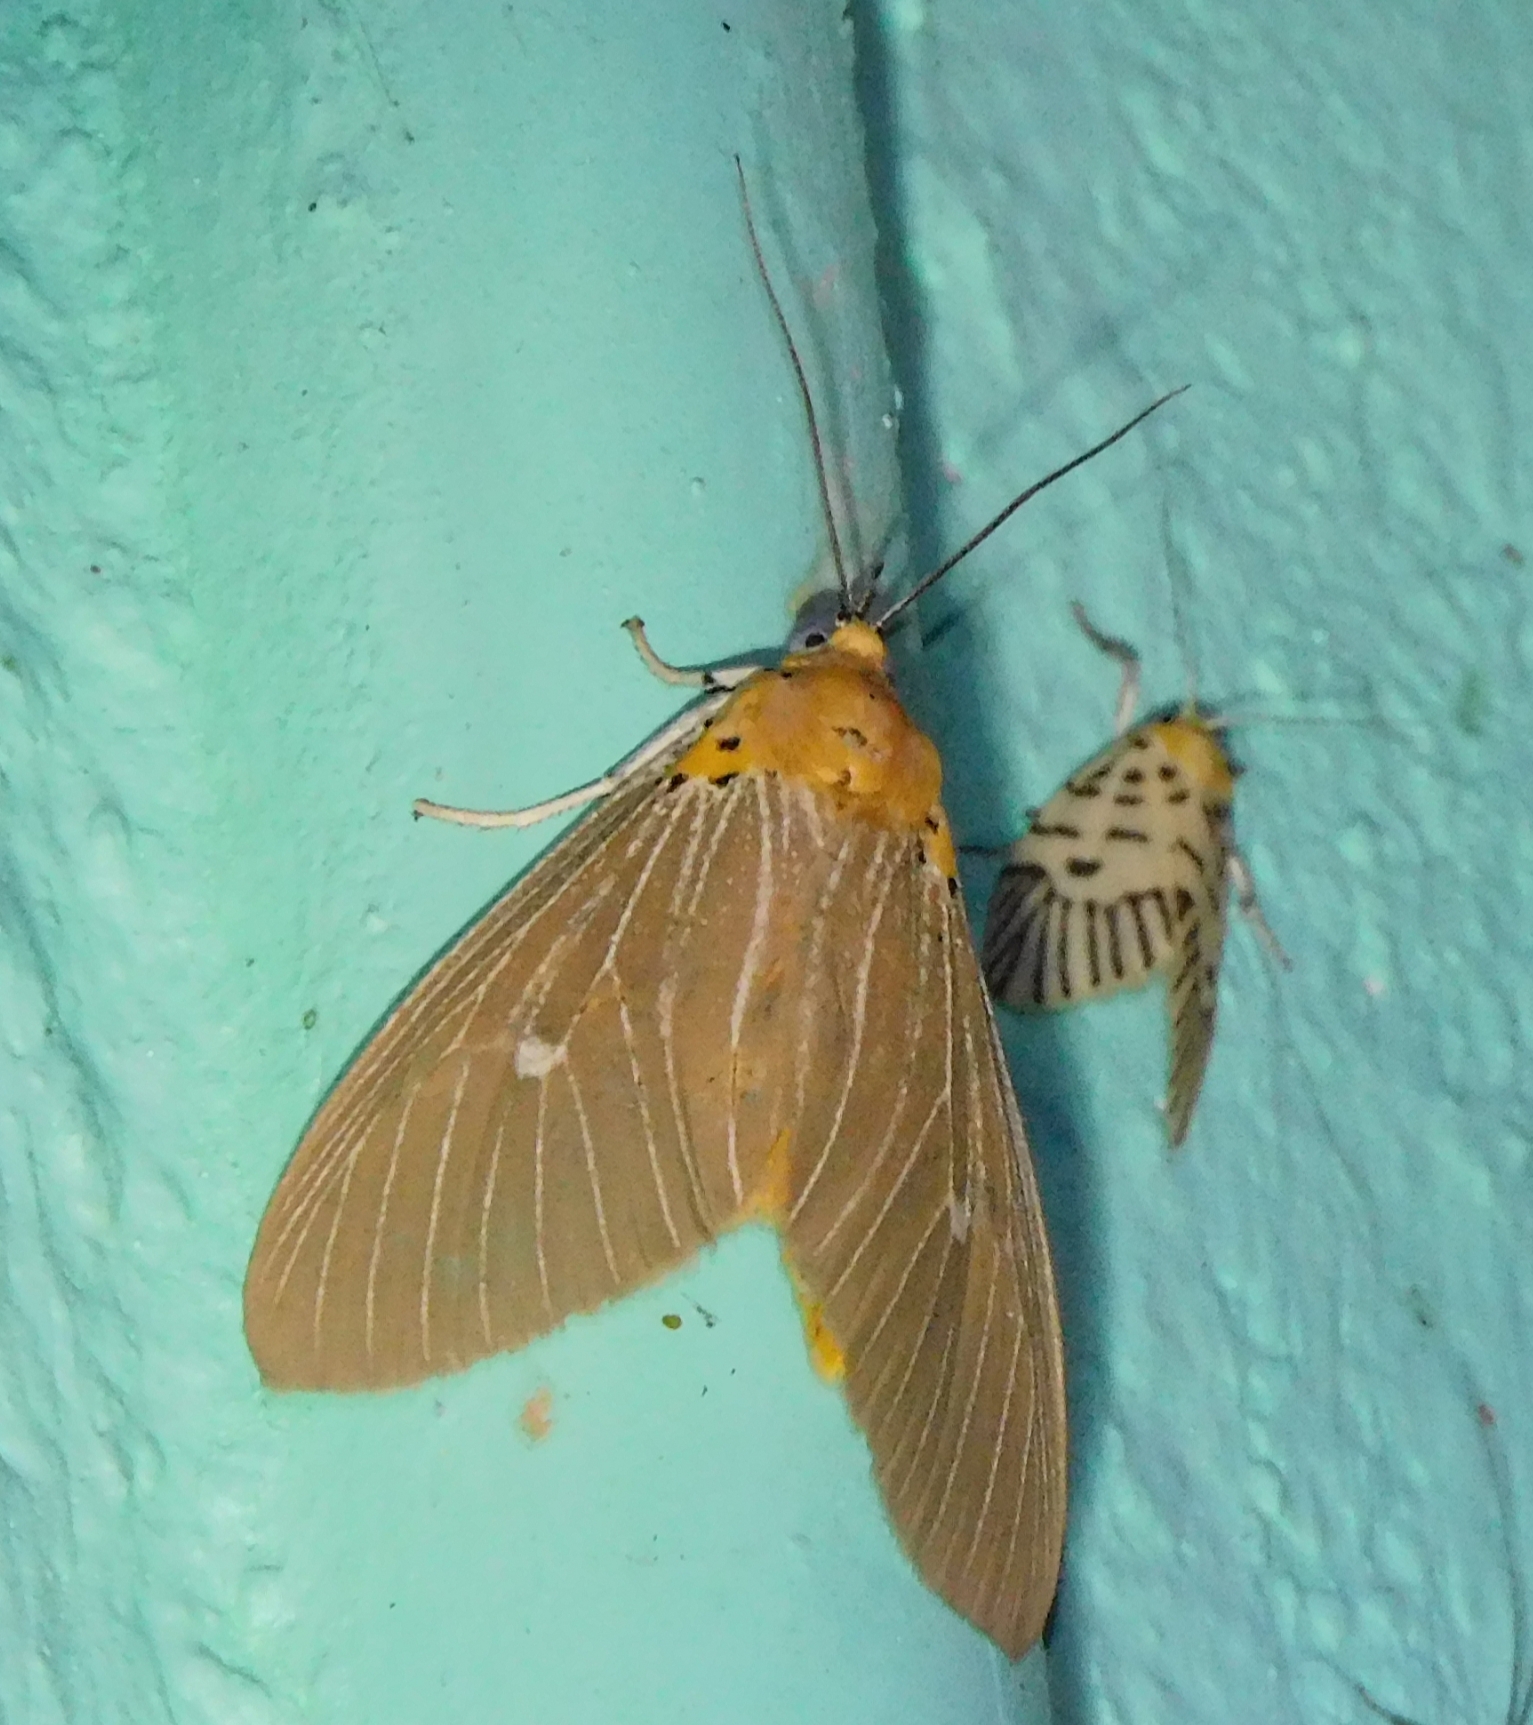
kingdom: Animalia
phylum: Arthropoda
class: Insecta
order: Lepidoptera
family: Erebidae
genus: Asota
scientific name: Asota caricae
